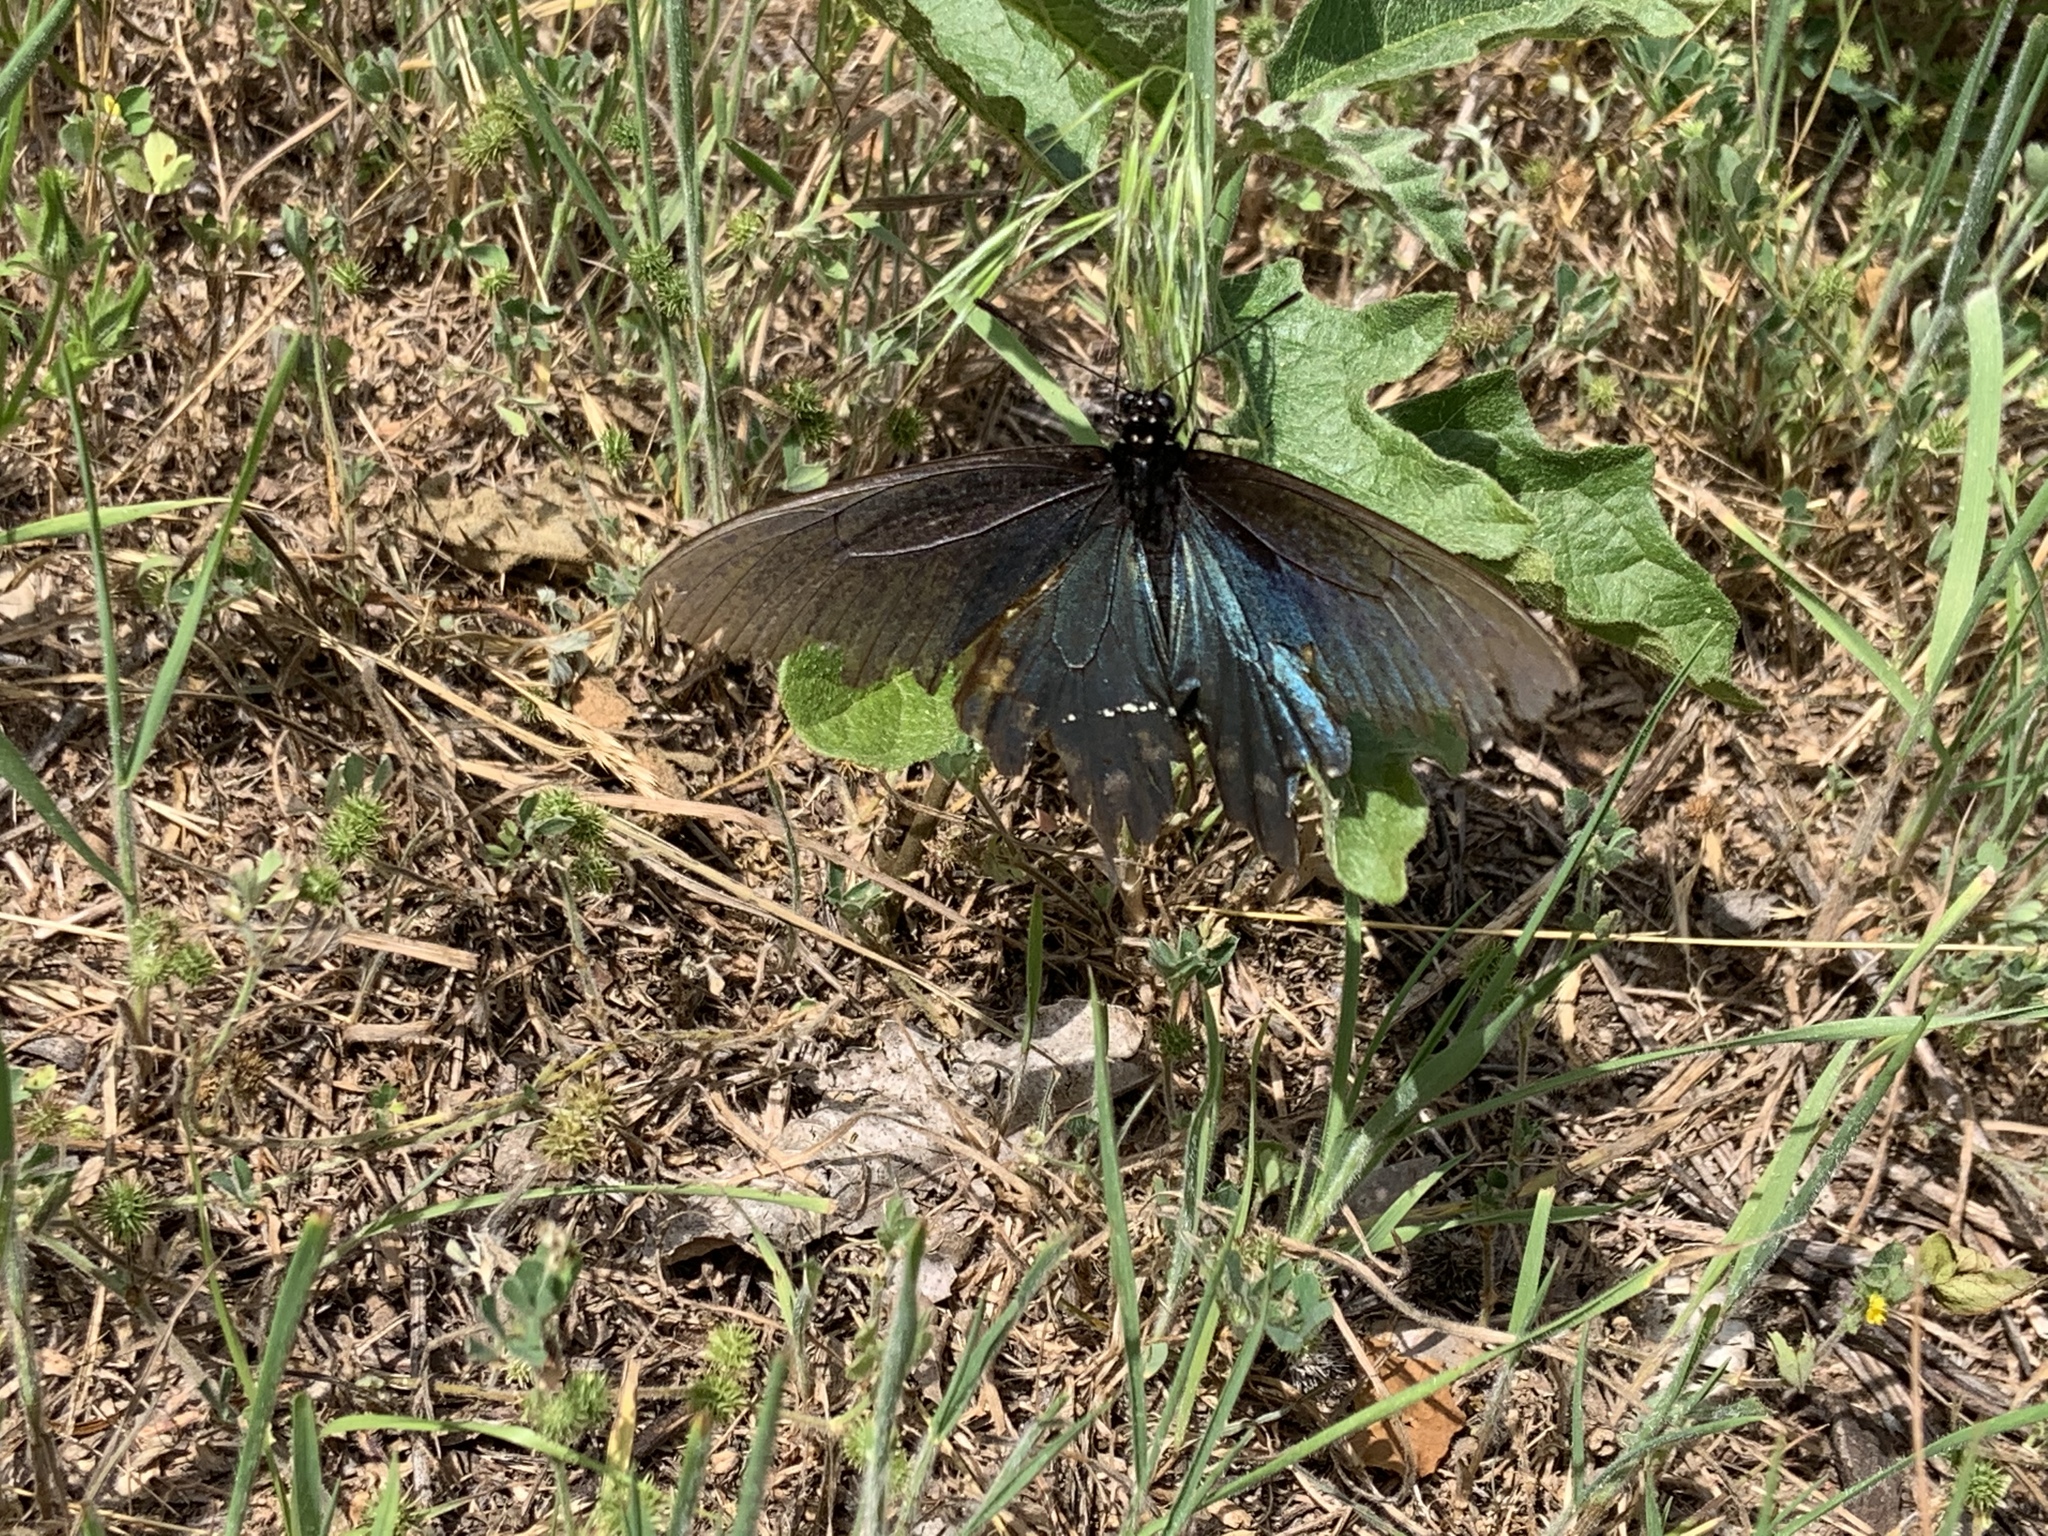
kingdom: Animalia
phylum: Arthropoda
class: Insecta
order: Lepidoptera
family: Papilionidae
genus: Battus
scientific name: Battus philenor
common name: Pipevine swallowtail
